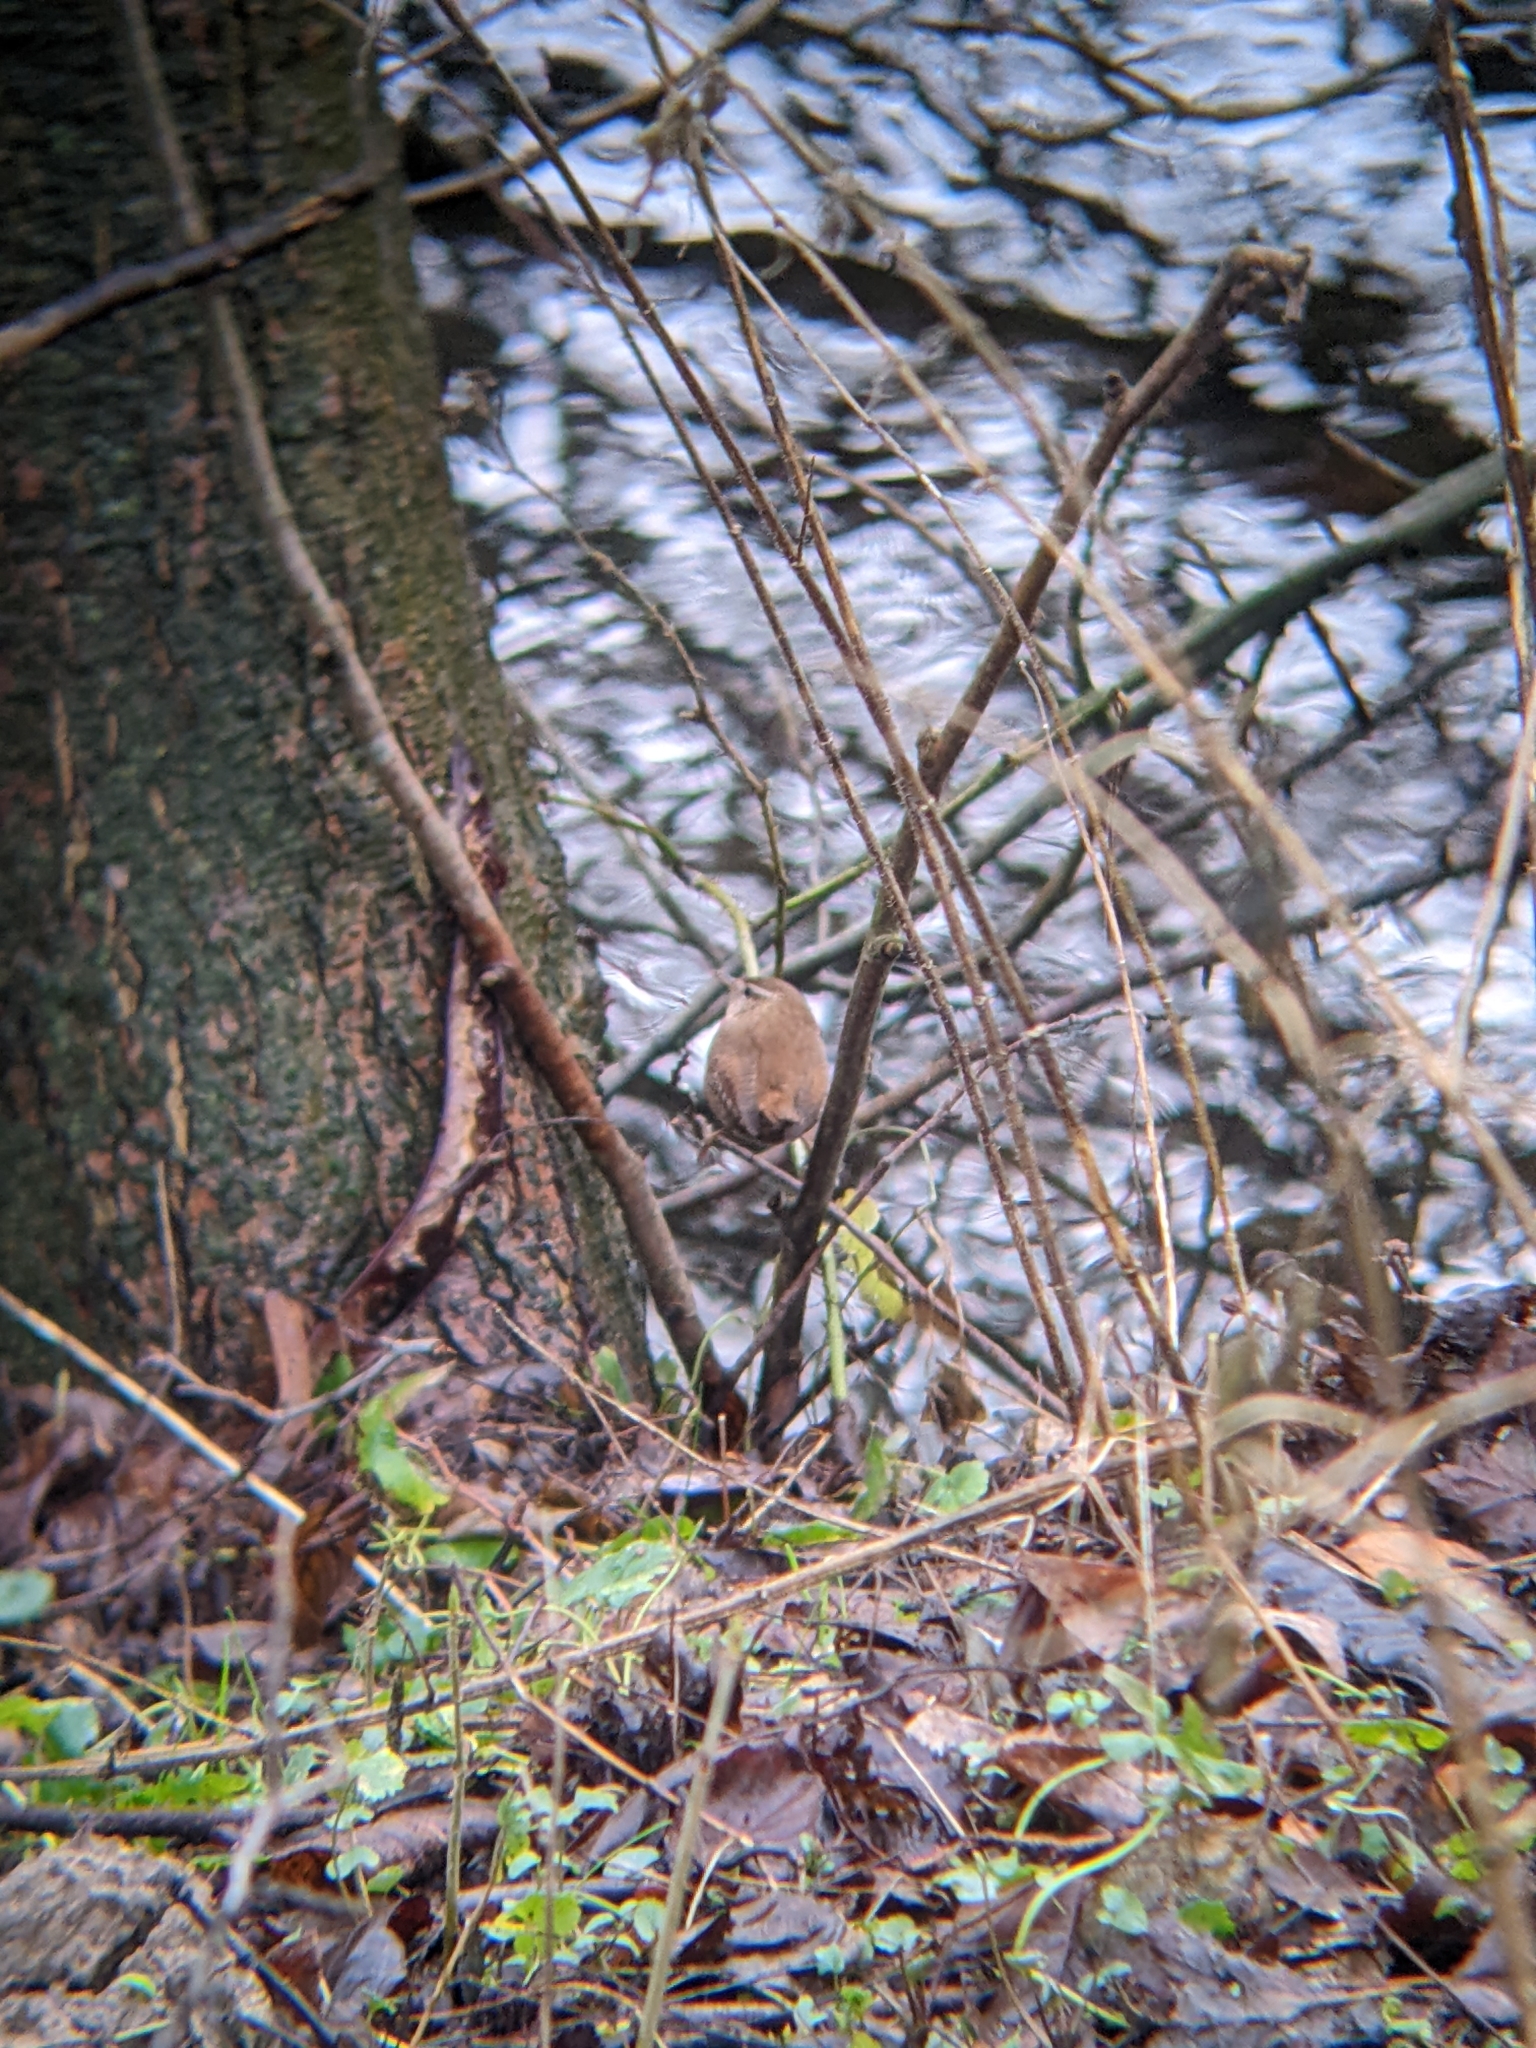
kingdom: Animalia
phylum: Chordata
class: Aves
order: Passeriformes
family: Troglodytidae
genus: Troglodytes
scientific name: Troglodytes troglodytes
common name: Eurasian wren
